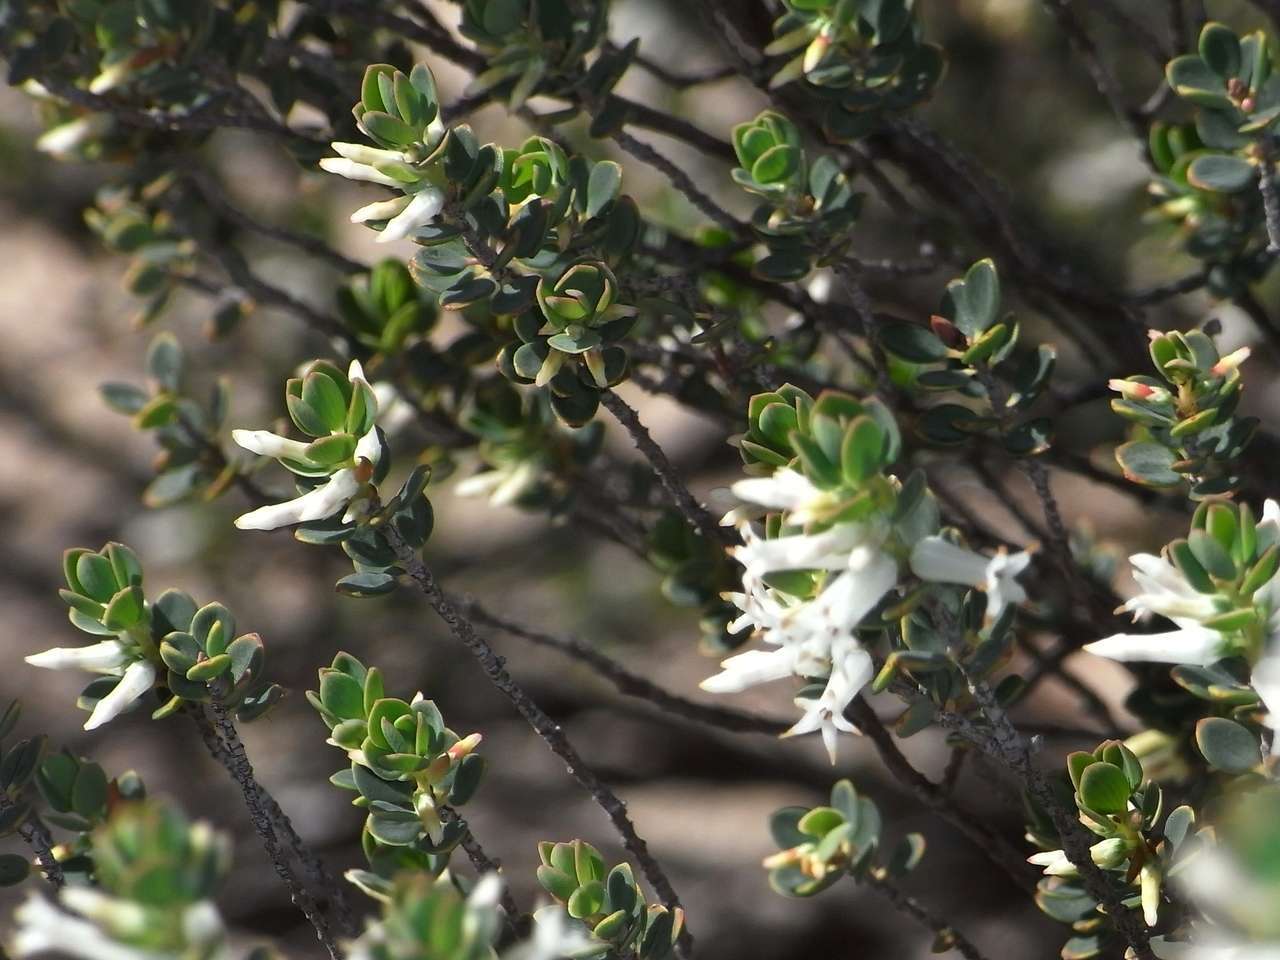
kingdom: Plantae
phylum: Tracheophyta
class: Magnoliopsida
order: Ericales
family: Ericaceae
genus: Brachyloma
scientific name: Brachyloma daphnoides
